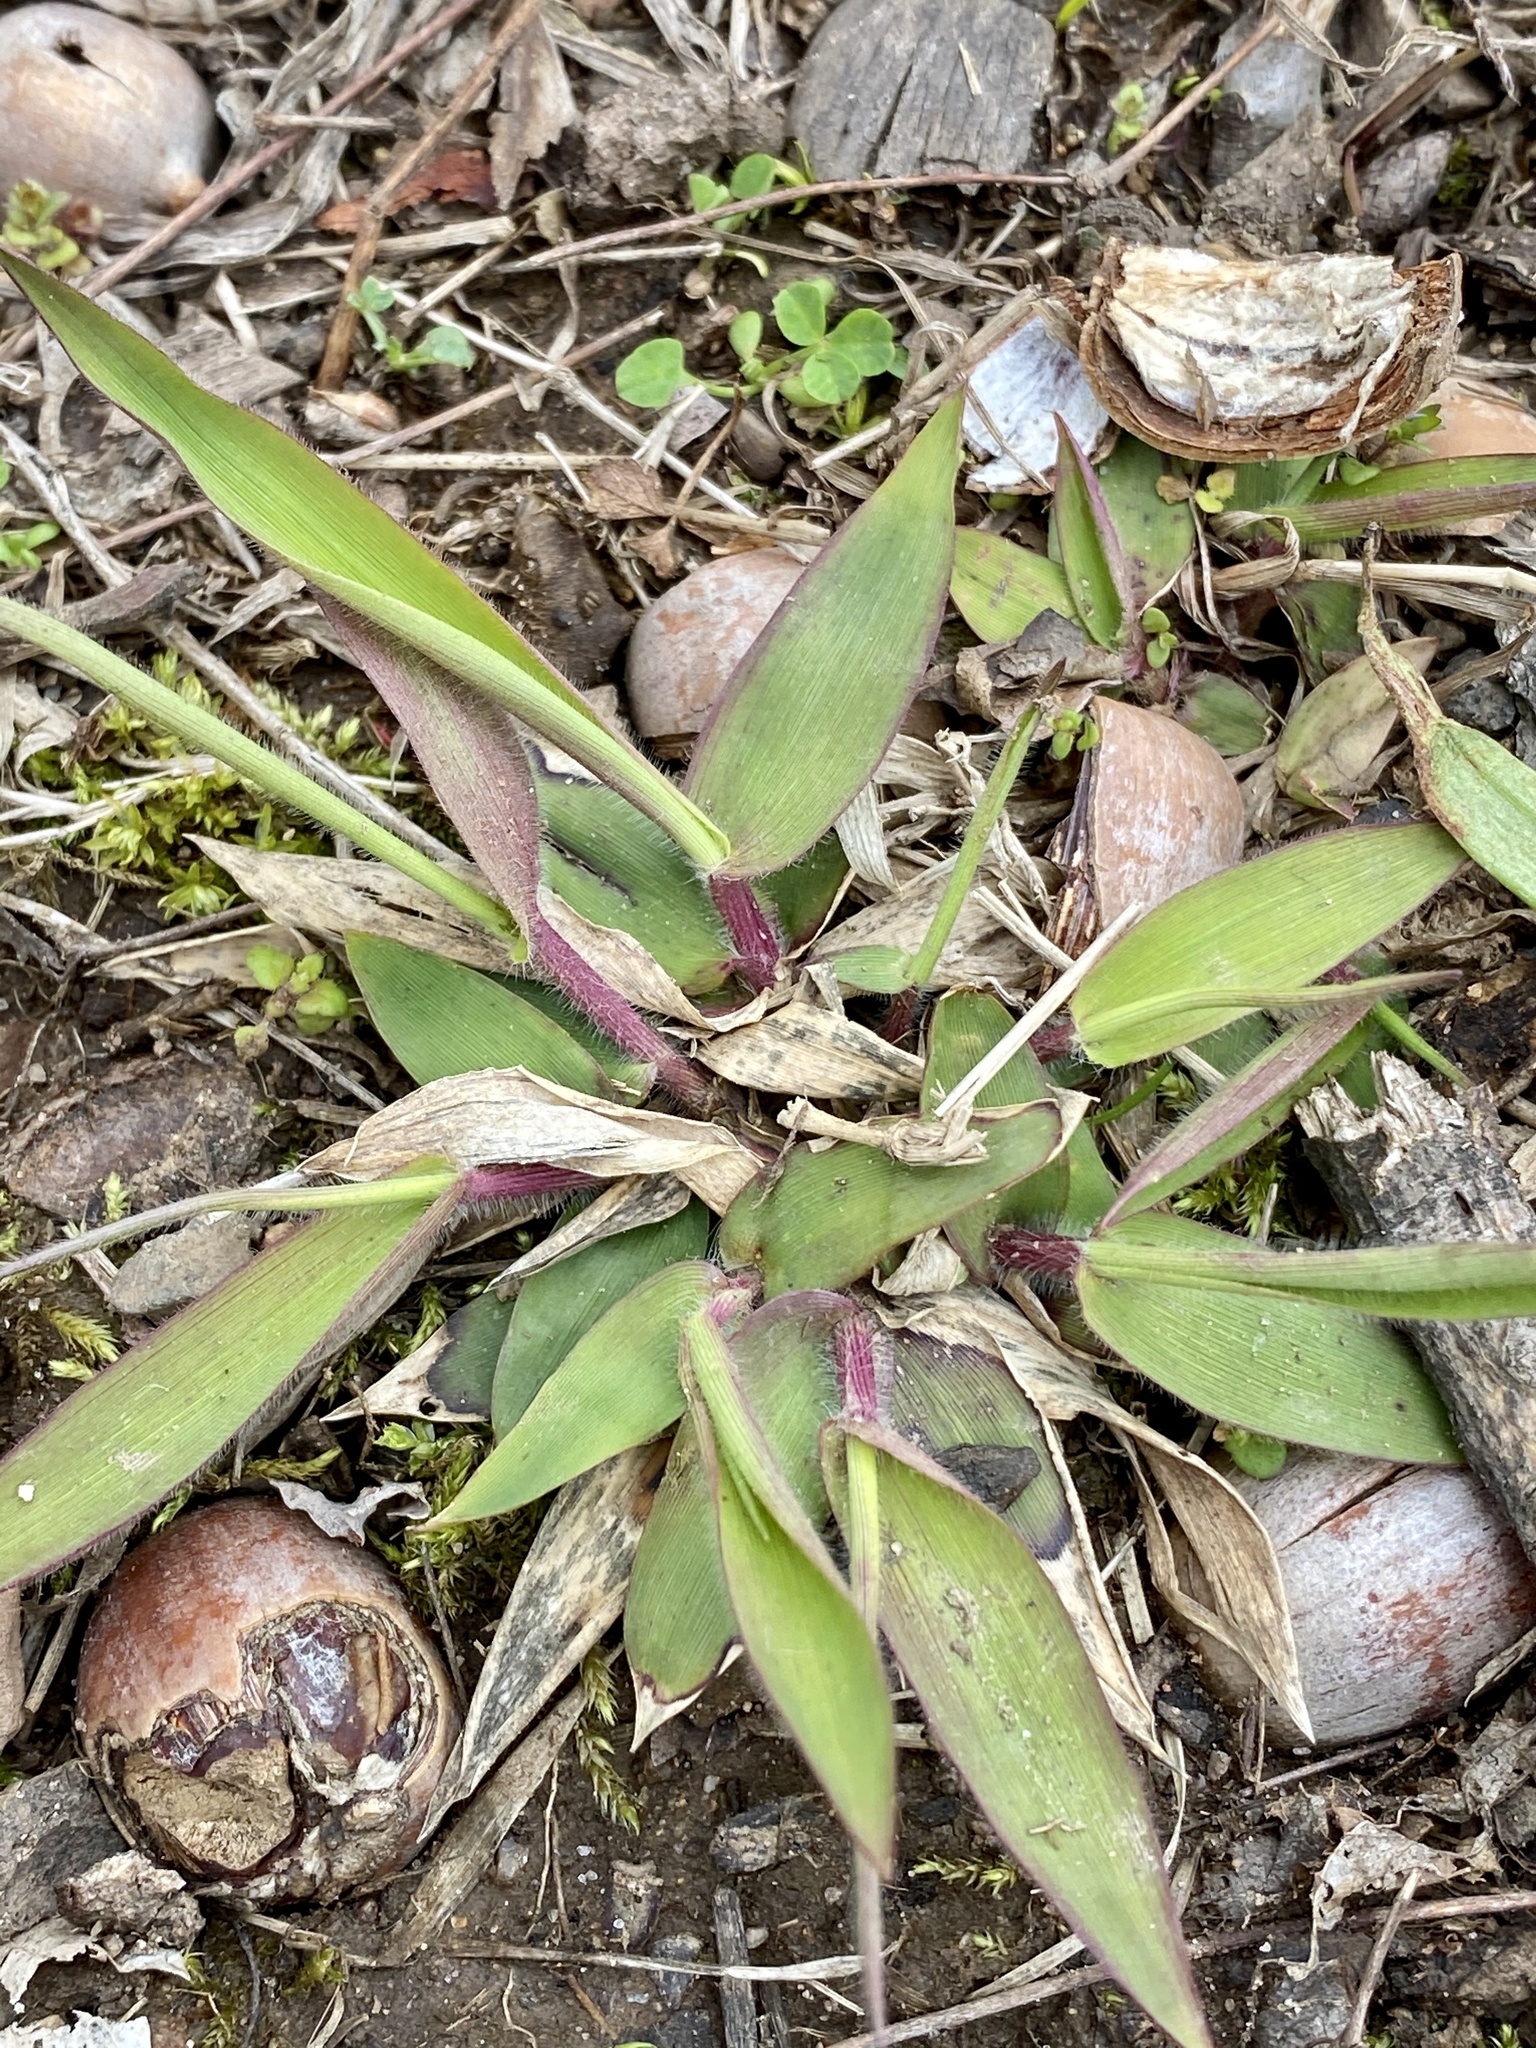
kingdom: Plantae
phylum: Tracheophyta
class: Liliopsida
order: Poales
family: Poaceae
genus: Dichanthelium
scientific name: Dichanthelium clandestinum
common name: Deer-tongue grass
